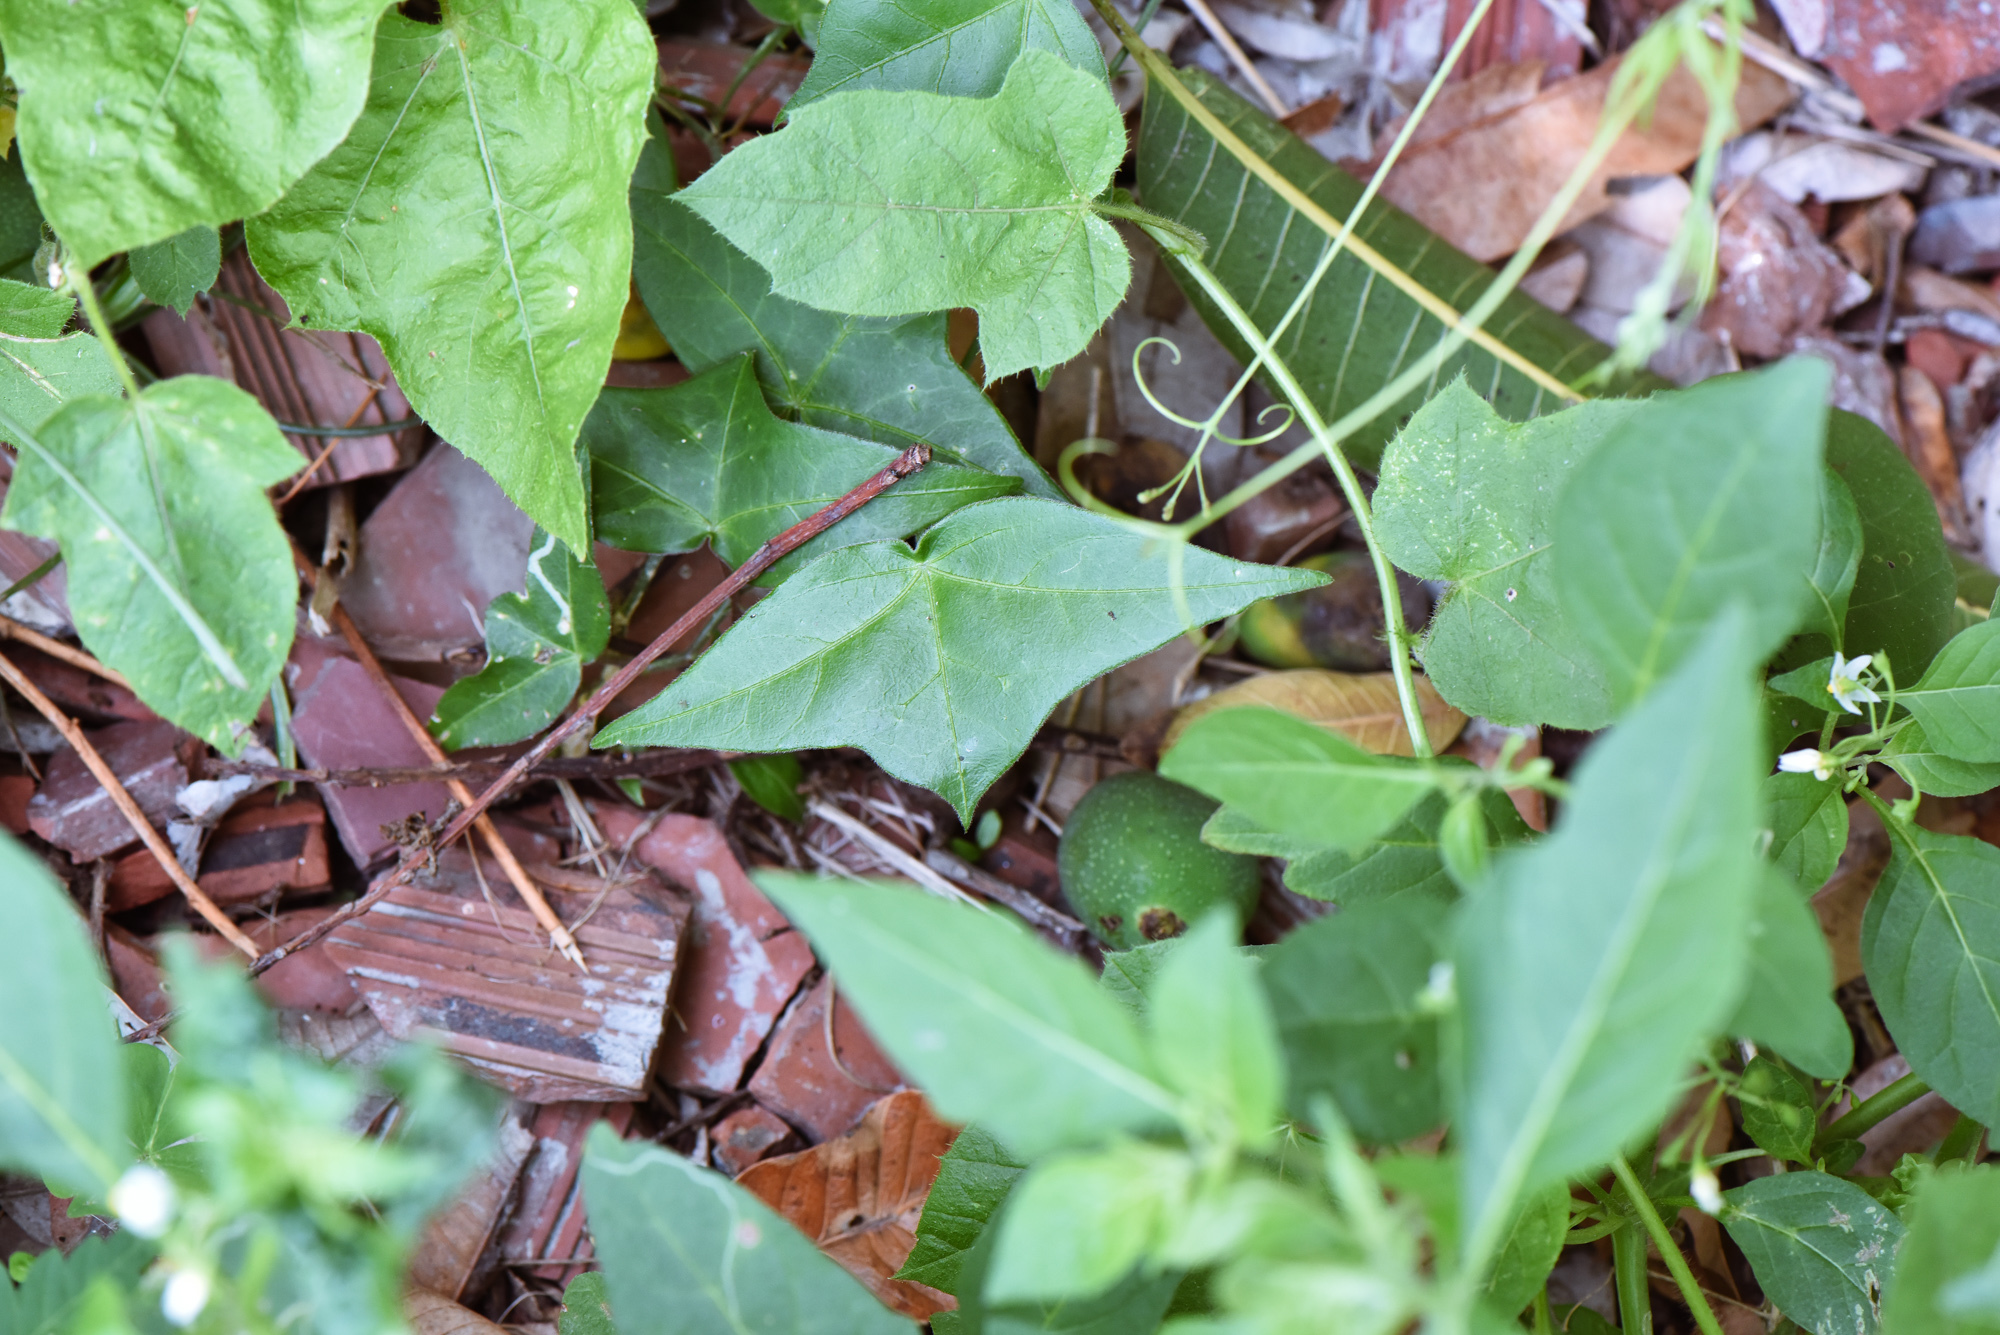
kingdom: Plantae
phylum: Tracheophyta
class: Magnoliopsida
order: Malpighiales
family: Passifloraceae
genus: Passiflora
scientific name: Passiflora suberosa
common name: Wild passionfruit
